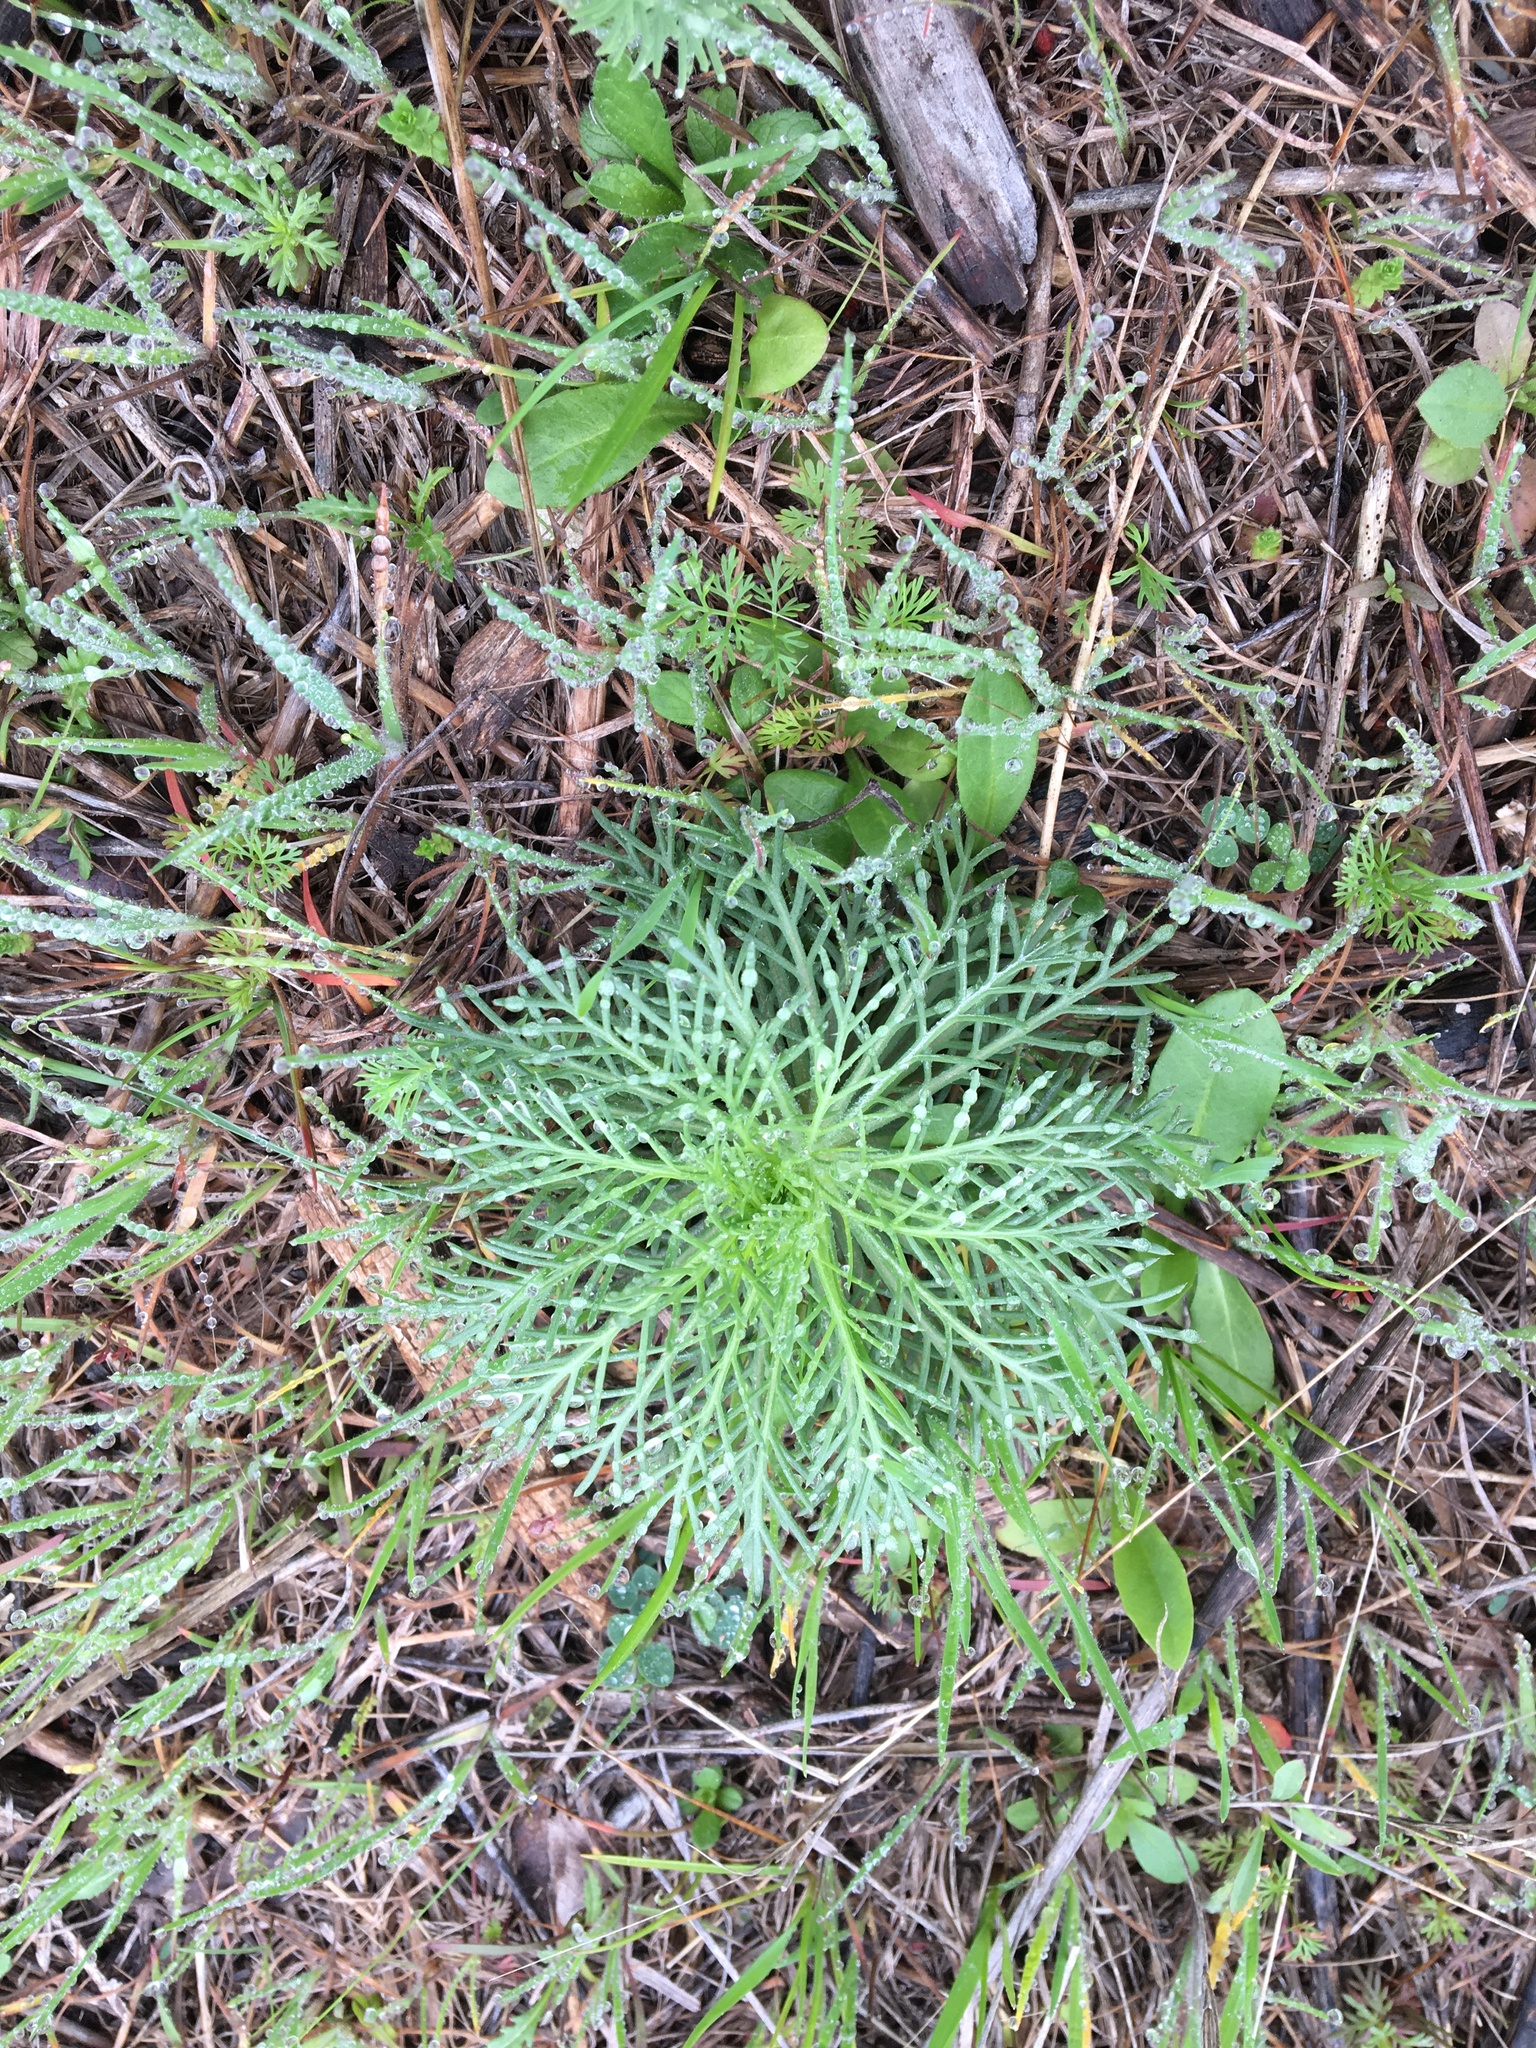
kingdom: Plantae
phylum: Tracheophyta
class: Magnoliopsida
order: Ericales
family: Polemoniaceae
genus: Ipomopsis
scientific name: Ipomopsis rubra
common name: Skyrocket
